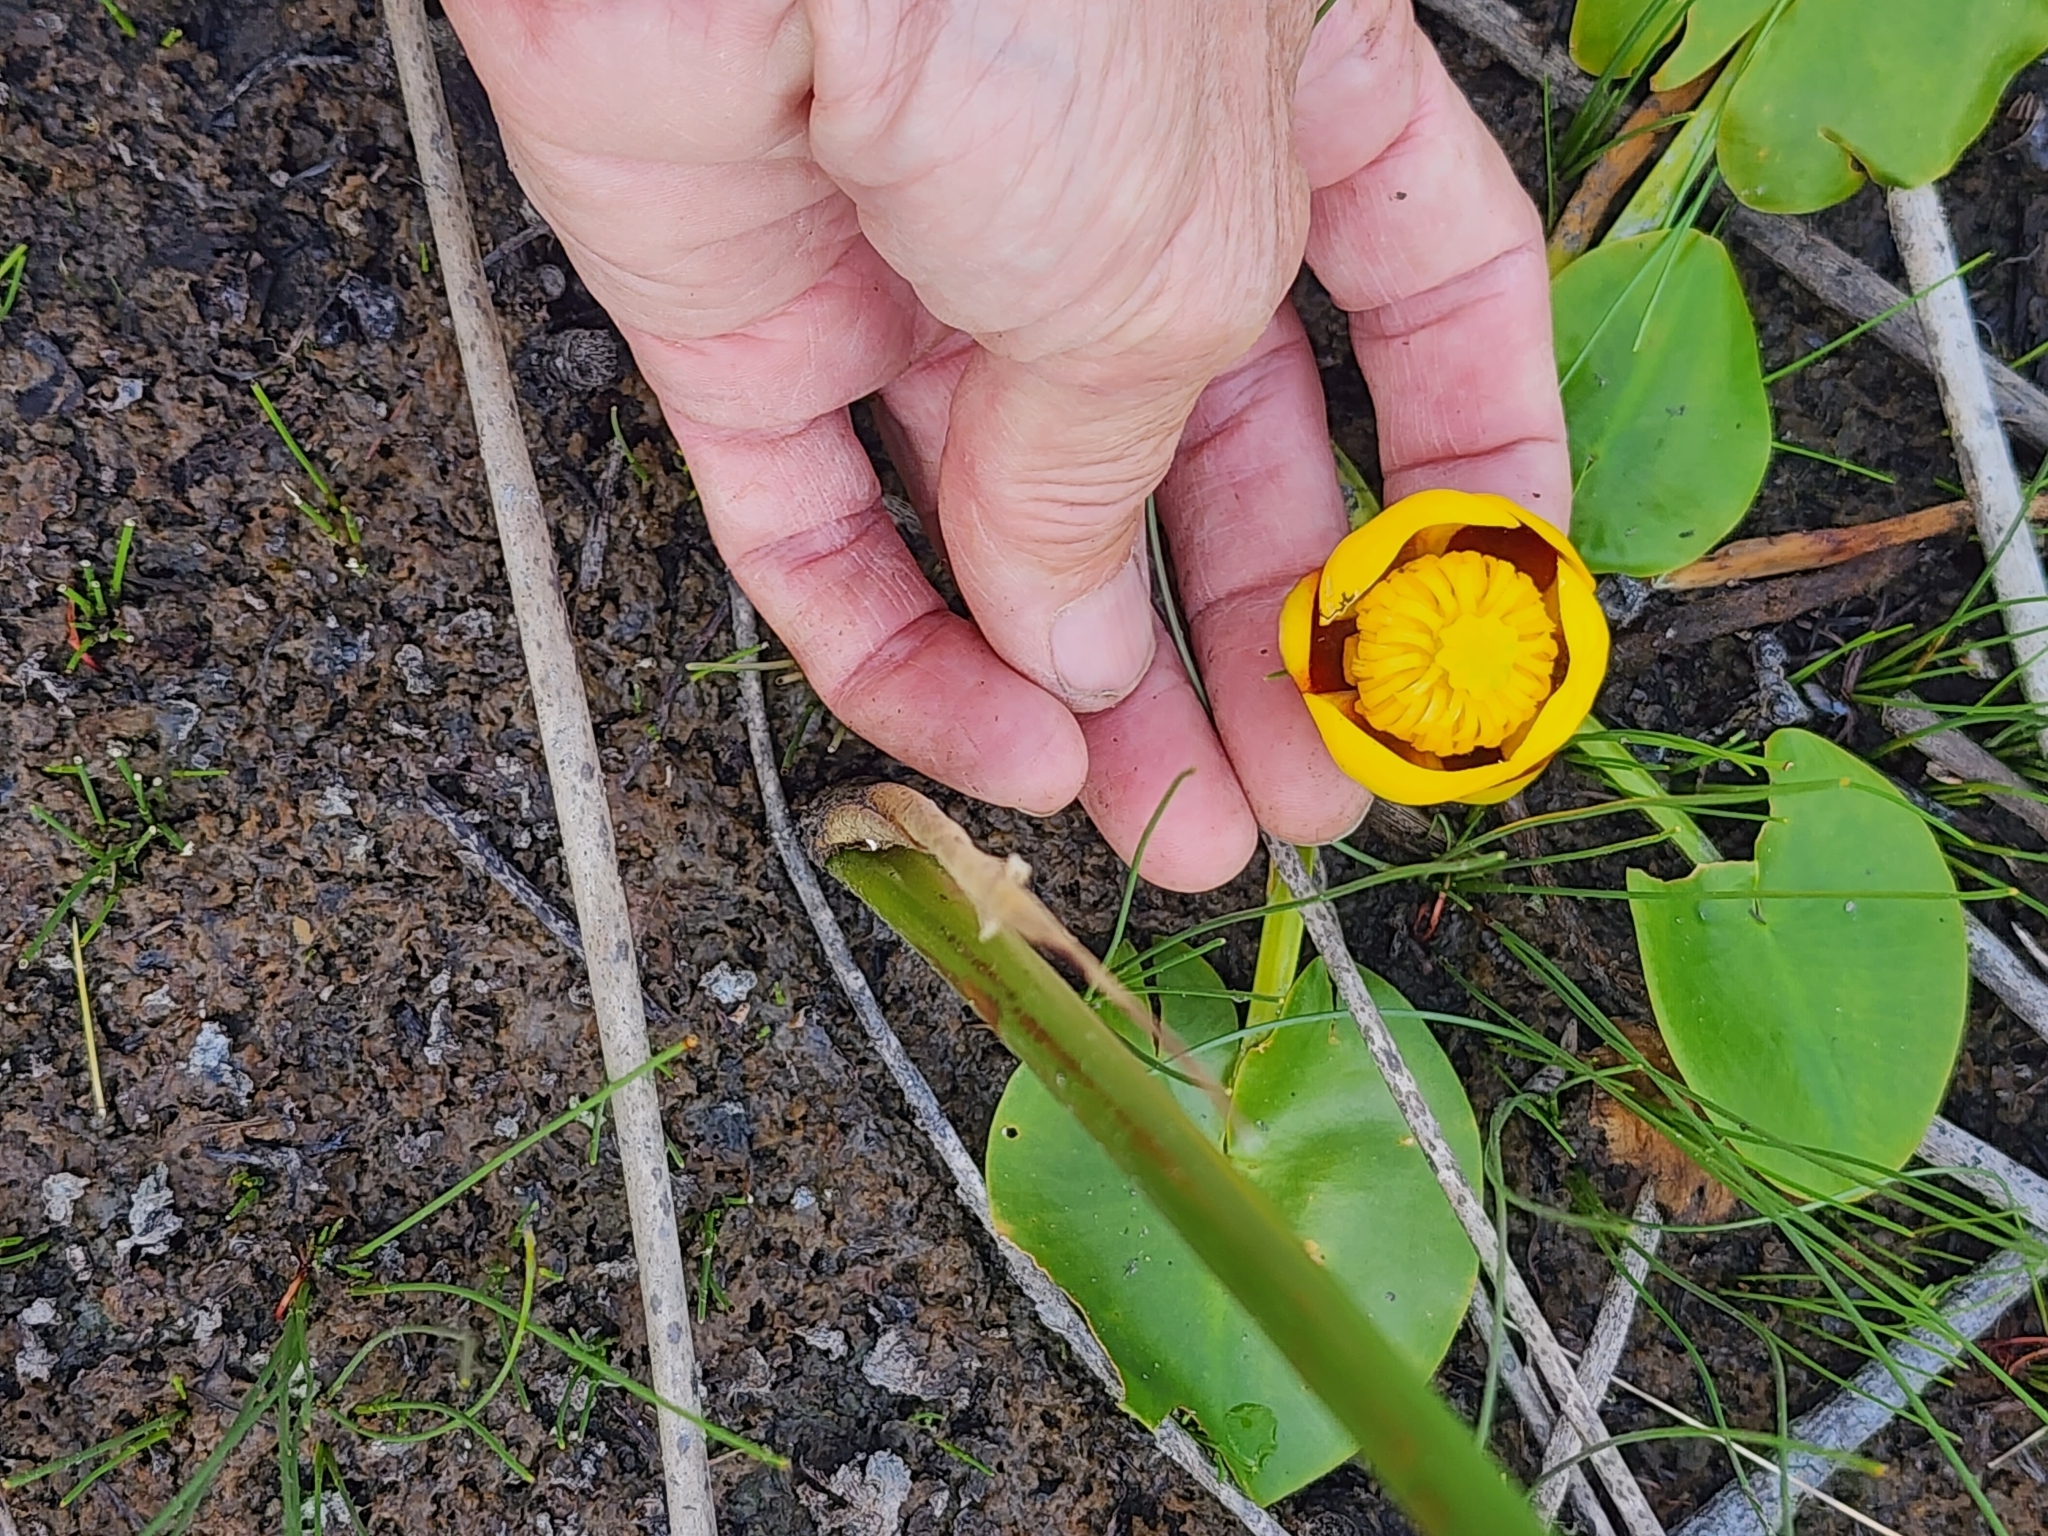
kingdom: Plantae
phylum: Tracheophyta
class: Magnoliopsida
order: Nymphaeales
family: Nymphaeaceae
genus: Nuphar
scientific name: Nuphar variegata
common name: Beaver-root
